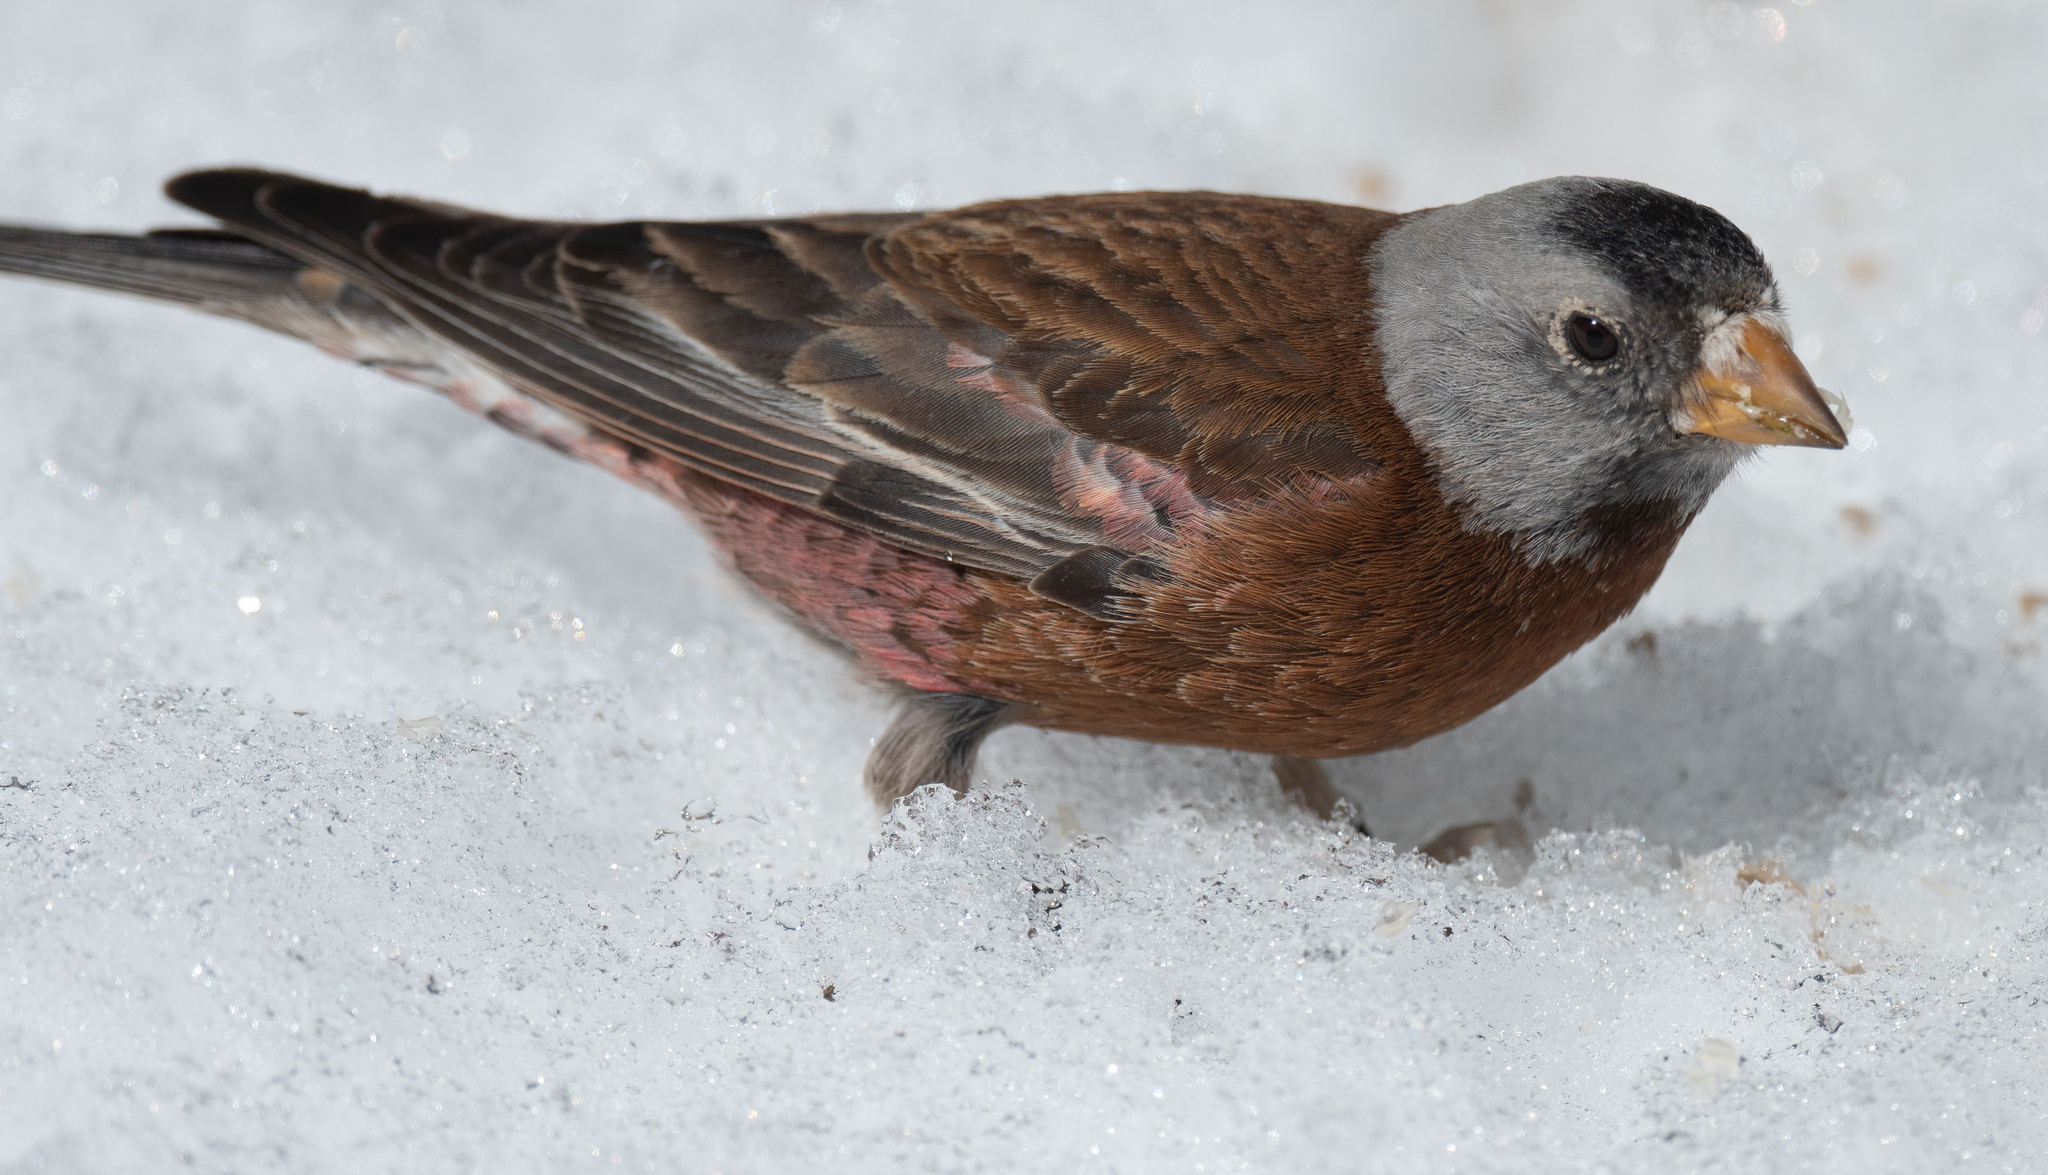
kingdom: Animalia
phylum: Chordata
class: Aves
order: Passeriformes
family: Fringillidae
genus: Leucosticte
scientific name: Leucosticte tephrocotis
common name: Gray-crowned rosy-finch
